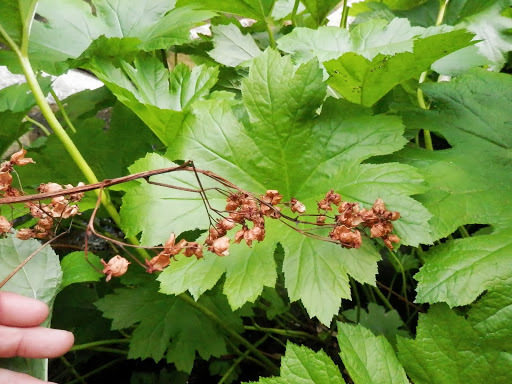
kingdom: Plantae
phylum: Tracheophyta
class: Magnoliopsida
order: Saxifragales
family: Saxifragaceae
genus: Darmera
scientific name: Darmera peltata
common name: Indian-rhubarb
